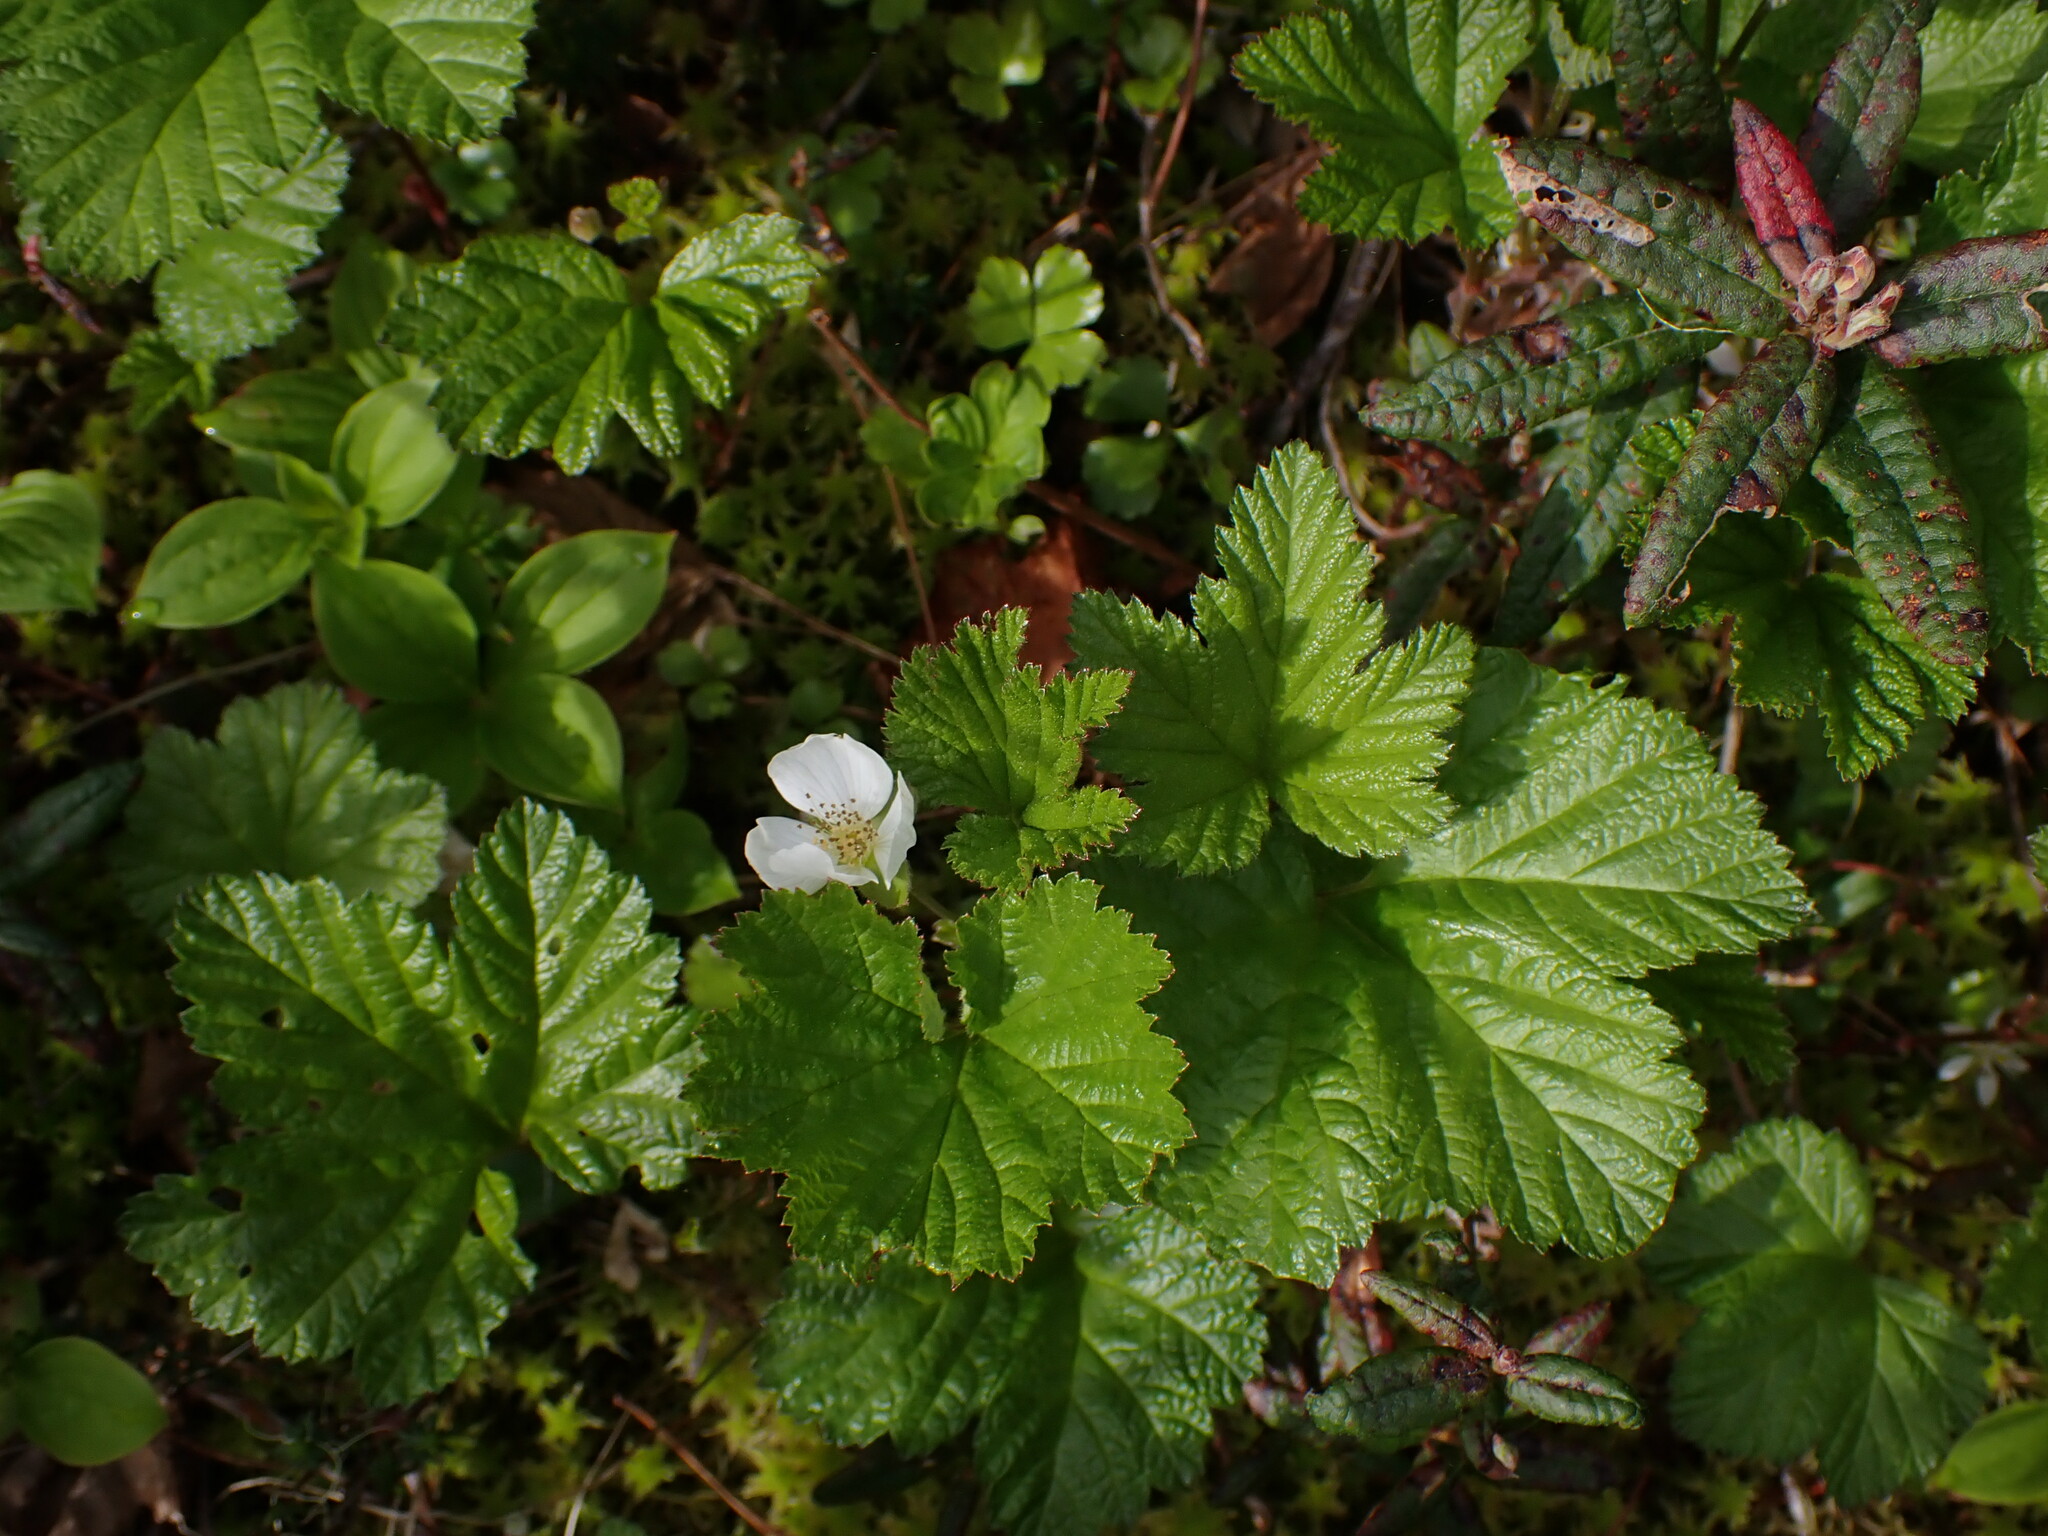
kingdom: Plantae
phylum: Tracheophyta
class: Magnoliopsida
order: Rosales
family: Rosaceae
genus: Rubus
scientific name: Rubus chamaemorus
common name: Cloudberry
